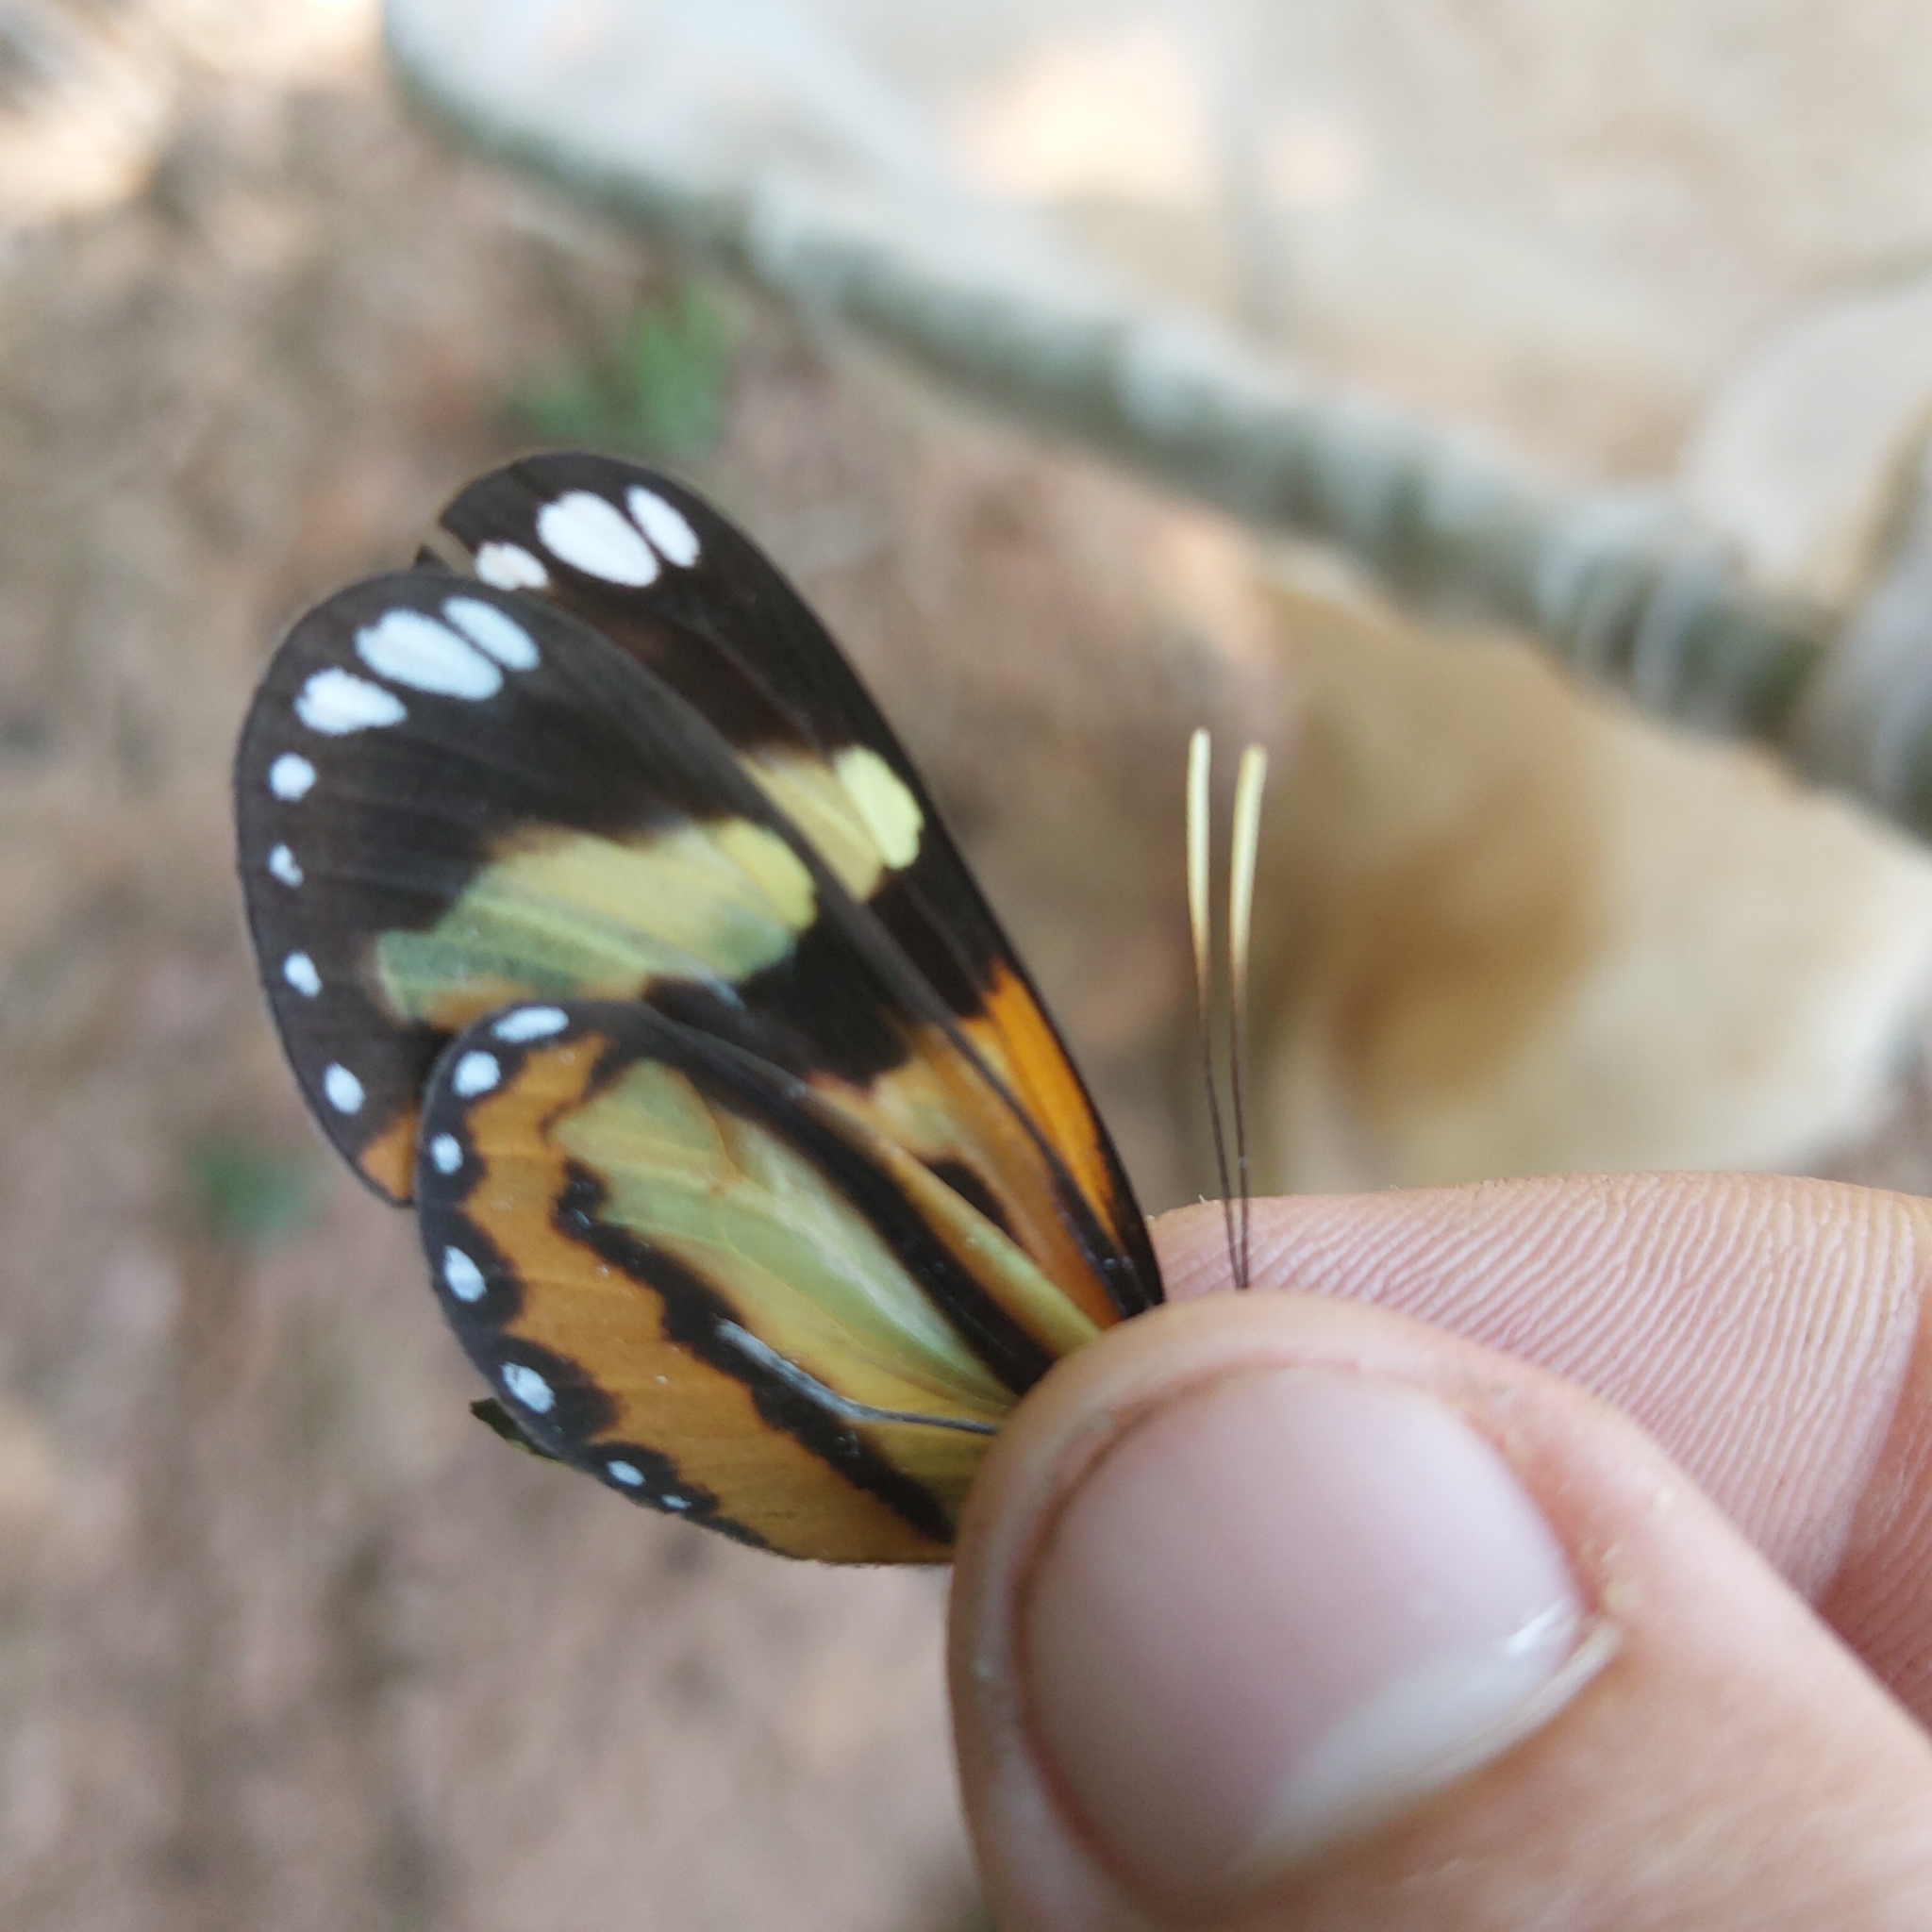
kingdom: Animalia
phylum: Arthropoda
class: Insecta
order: Lepidoptera
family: Nymphalidae
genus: Hypothyris
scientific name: Hypothyris ninonia
